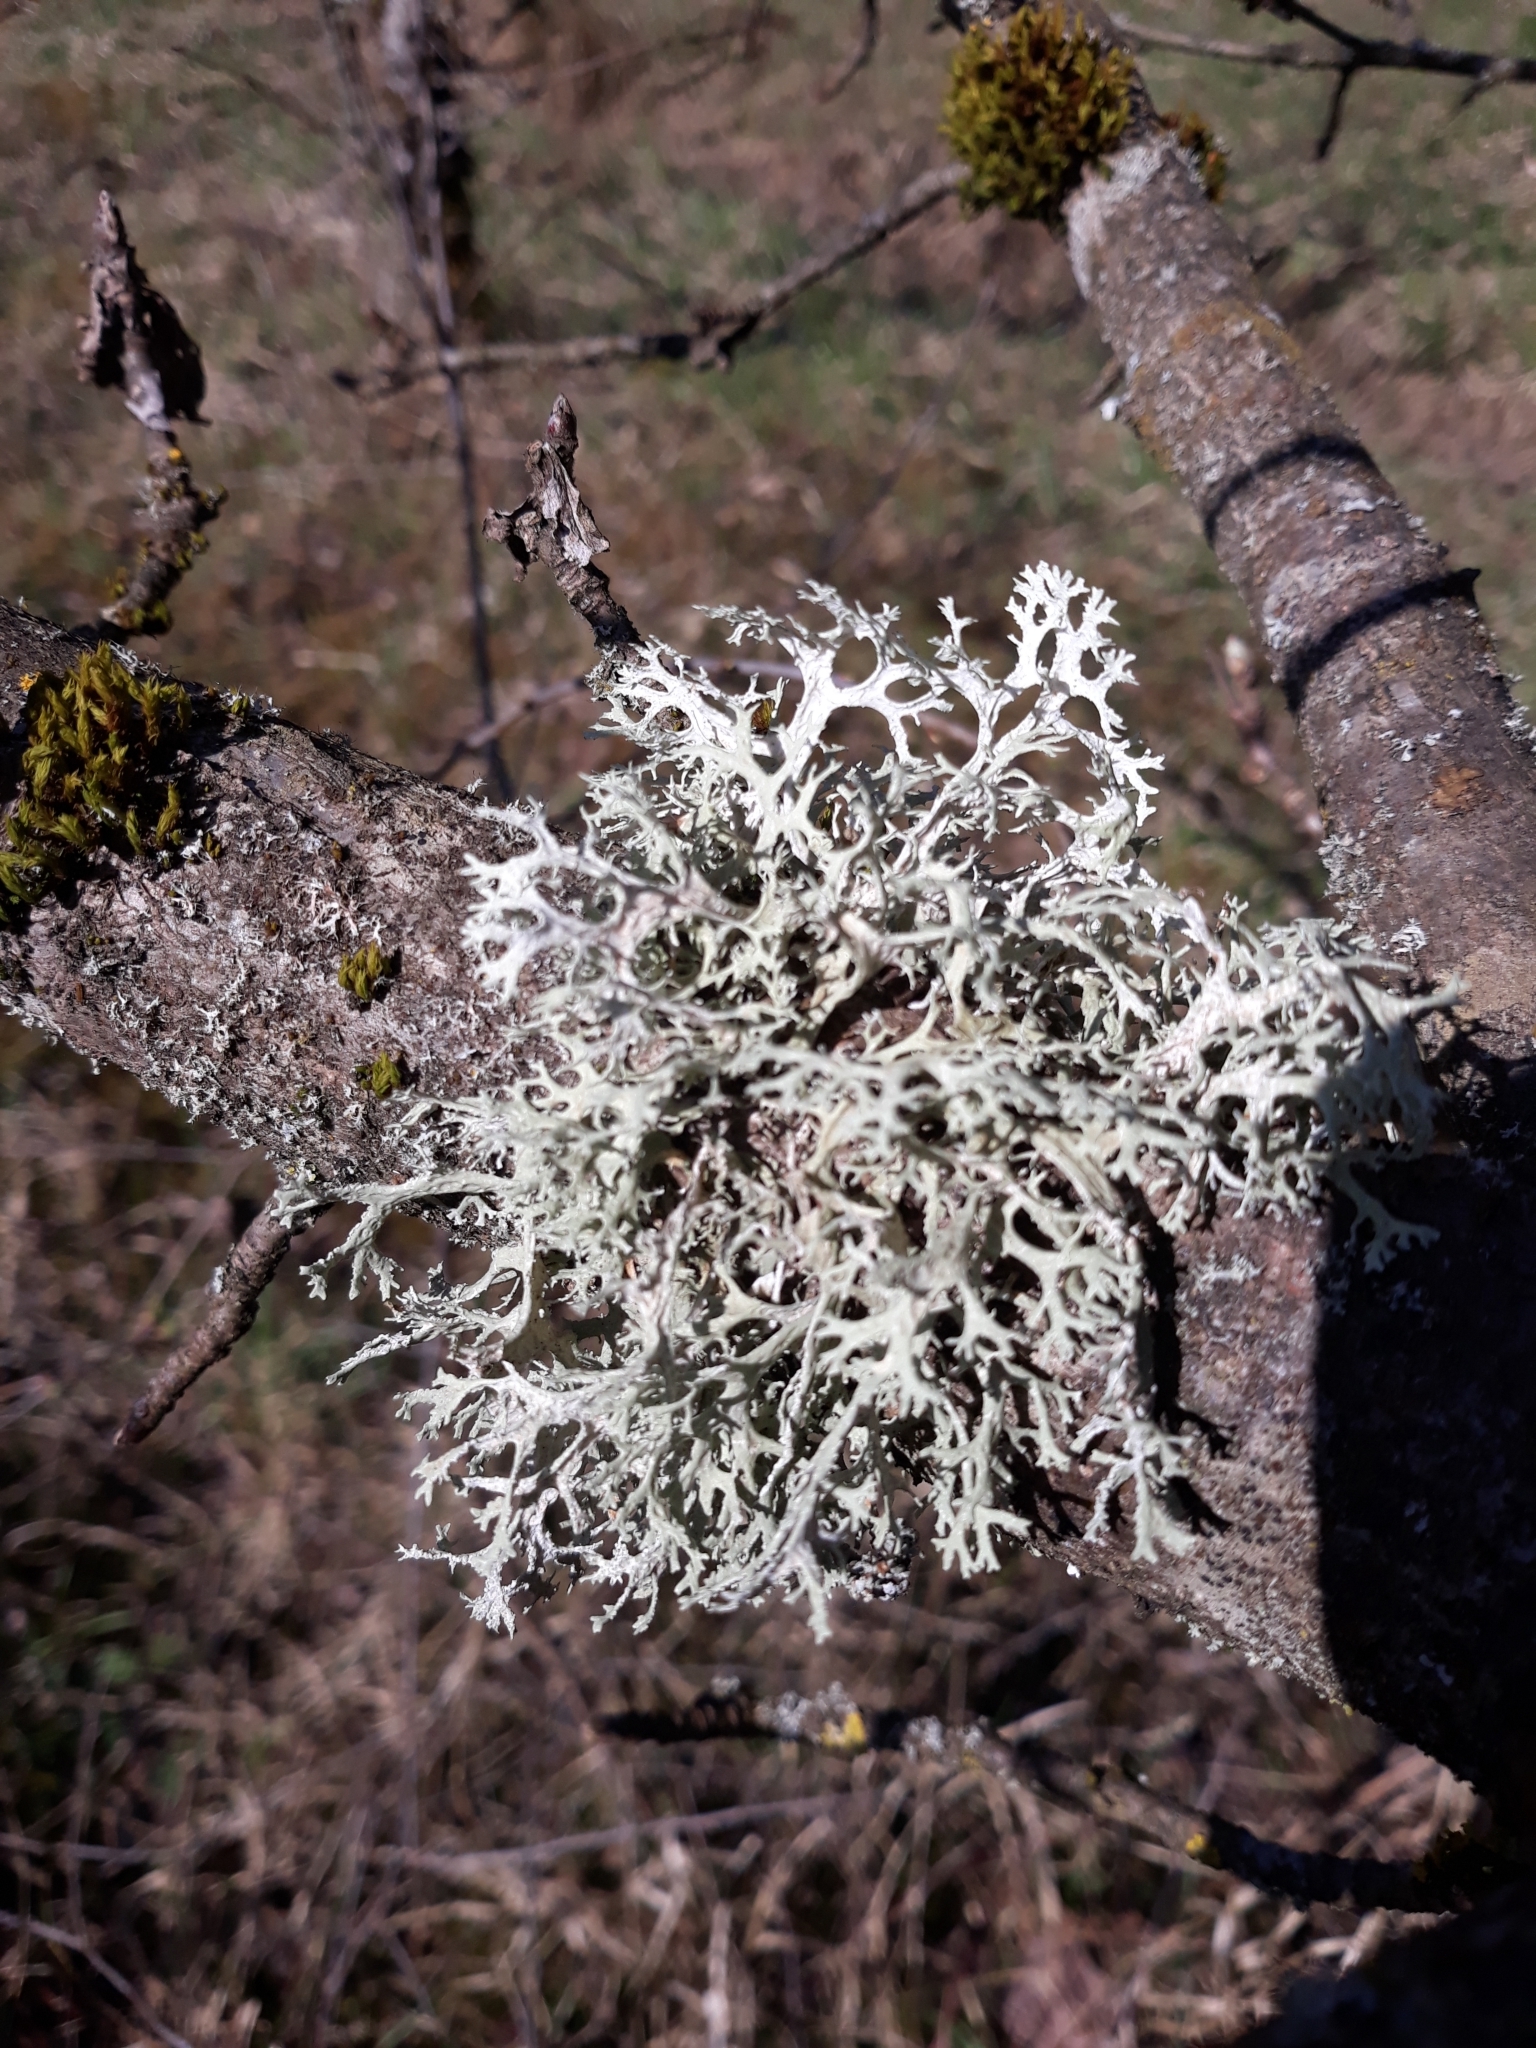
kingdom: Fungi
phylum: Ascomycota
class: Lecanoromycetes
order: Lecanorales
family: Parmeliaceae
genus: Evernia
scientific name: Evernia prunastri
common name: Oak moss
